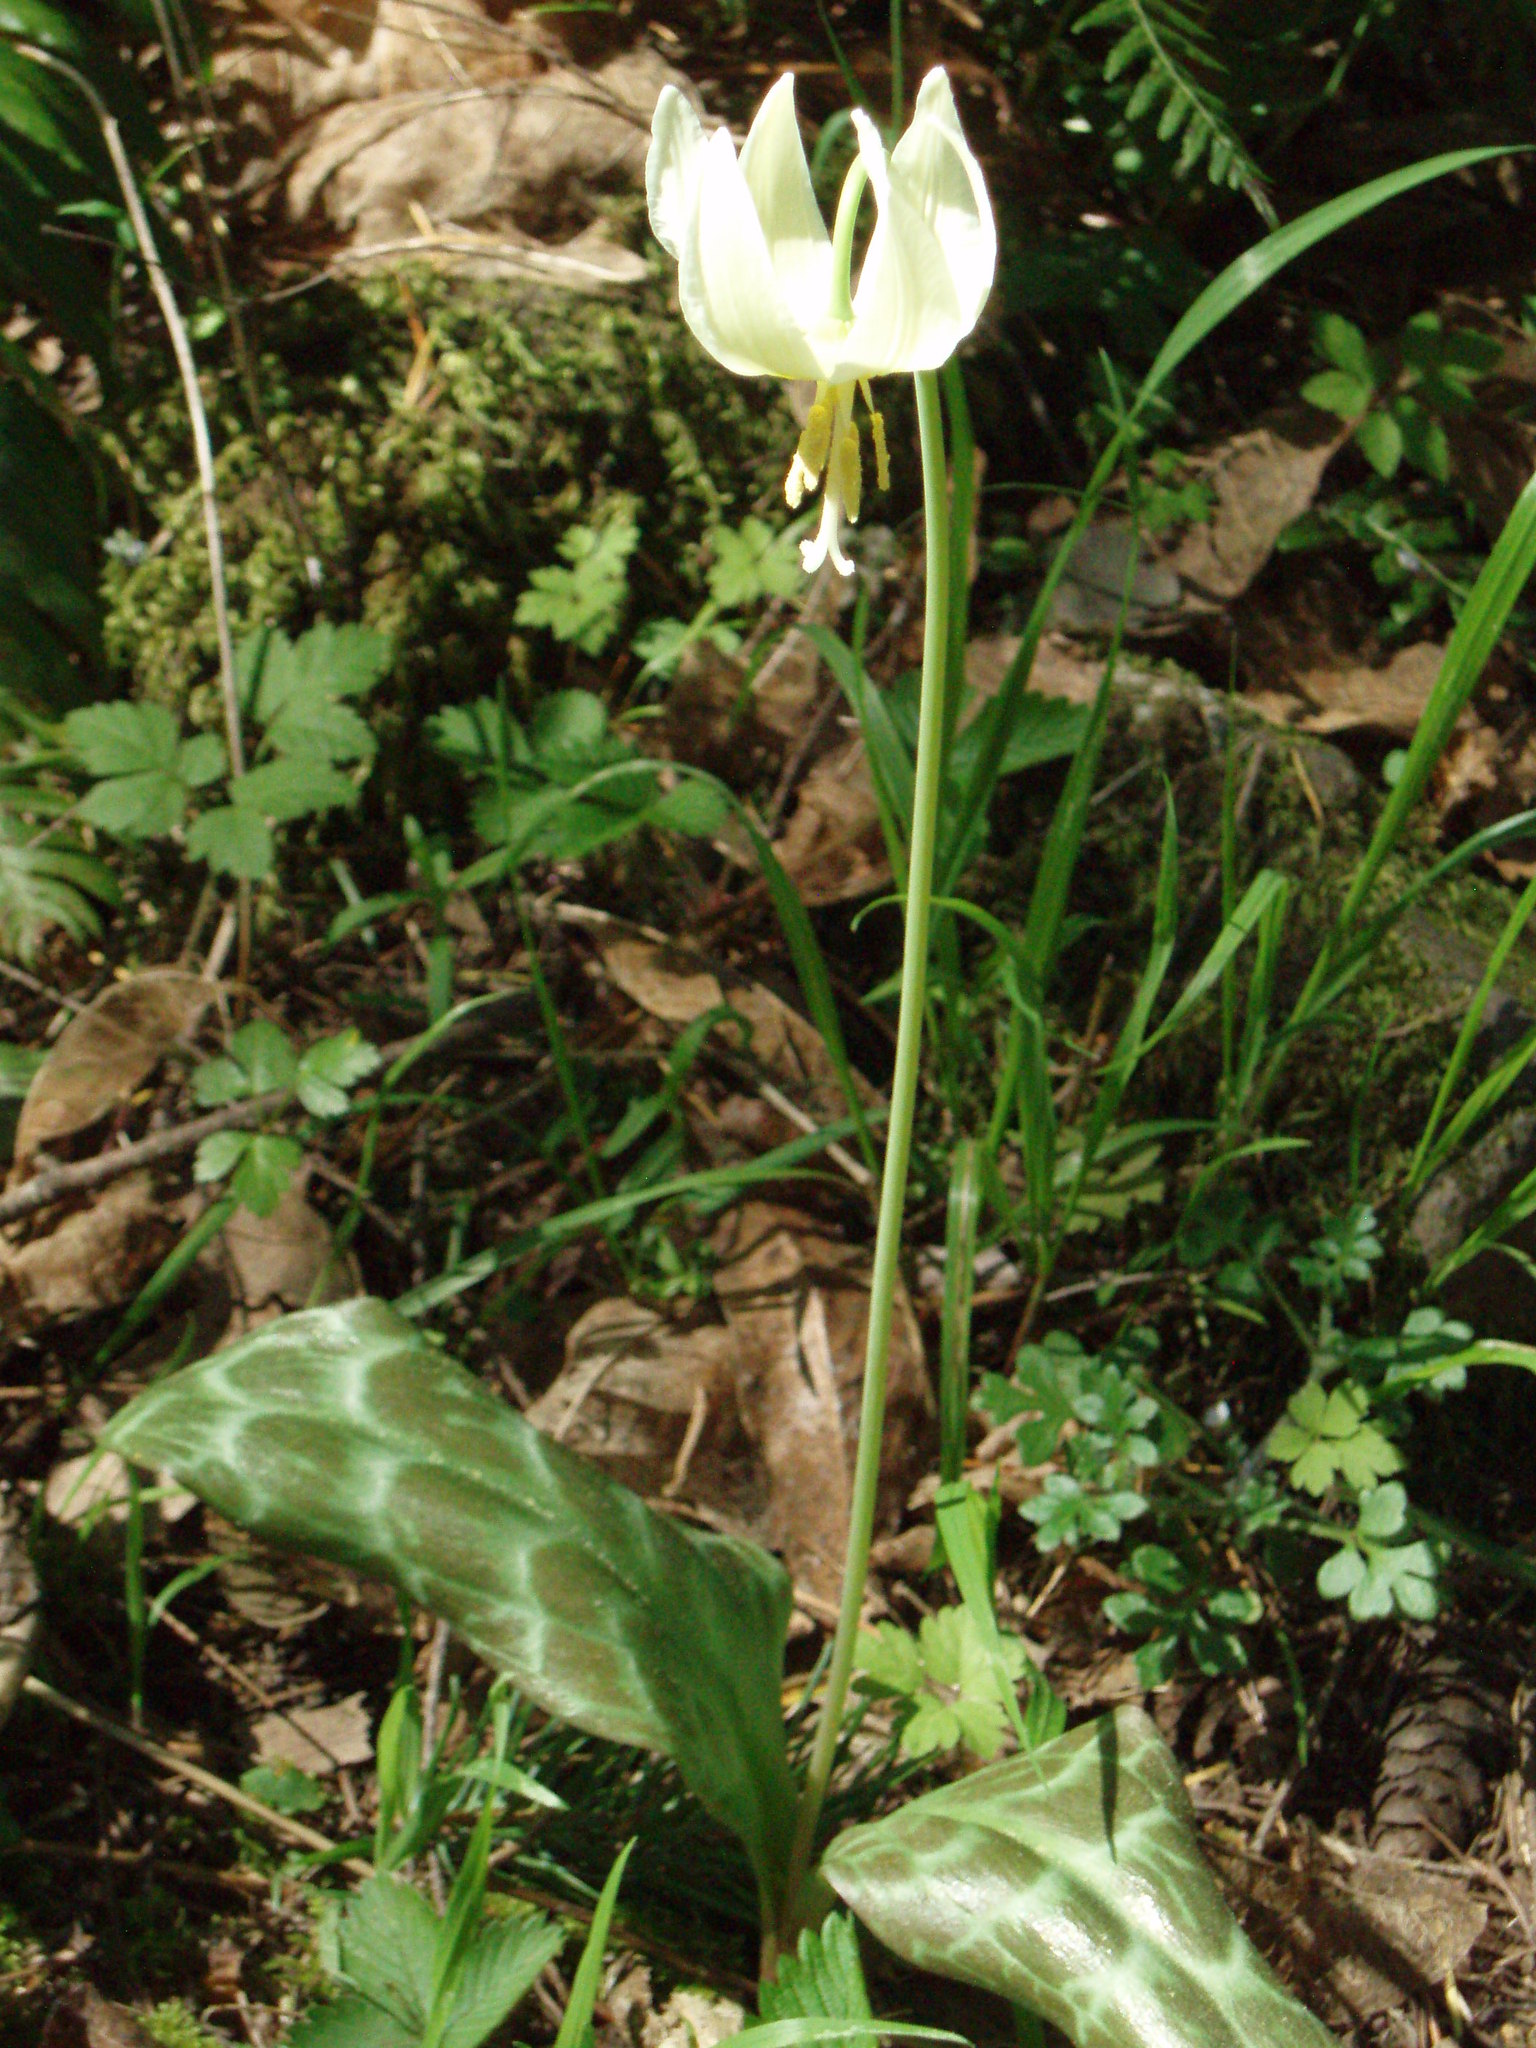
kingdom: Plantae
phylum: Tracheophyta
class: Liliopsida
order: Liliales
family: Liliaceae
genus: Erythronium
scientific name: Erythronium oregonum
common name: Giant adder's-tongue
